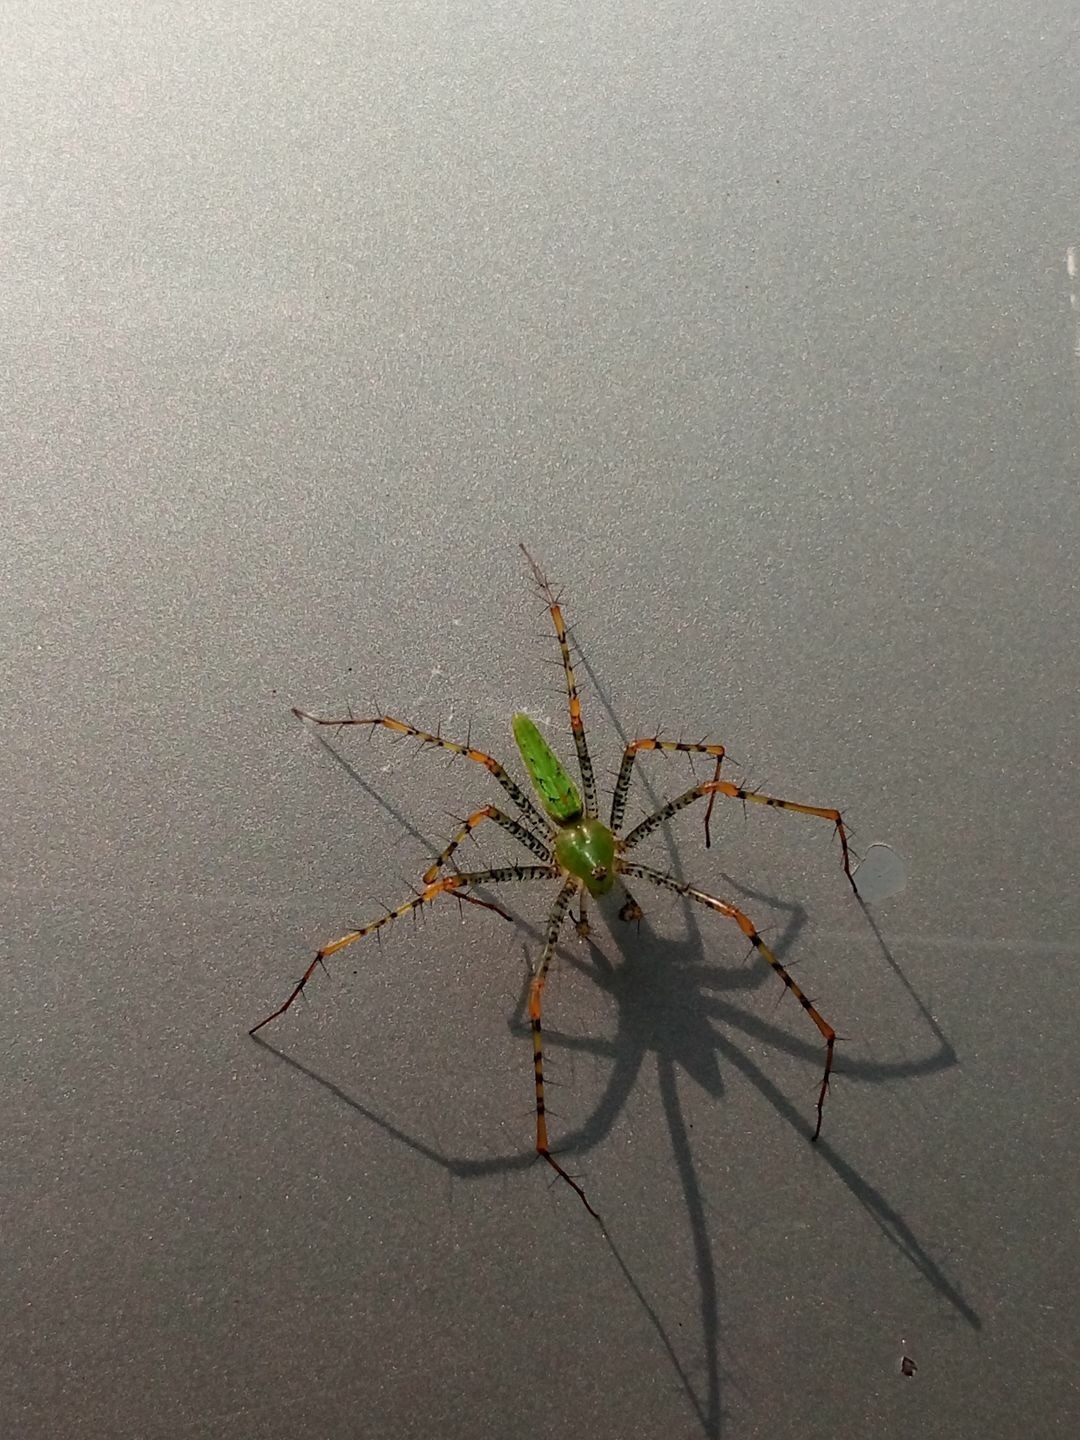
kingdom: Animalia
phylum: Arthropoda
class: Arachnida
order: Araneae
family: Oxyopidae
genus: Peucetia
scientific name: Peucetia viridans
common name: Lynx spiders
